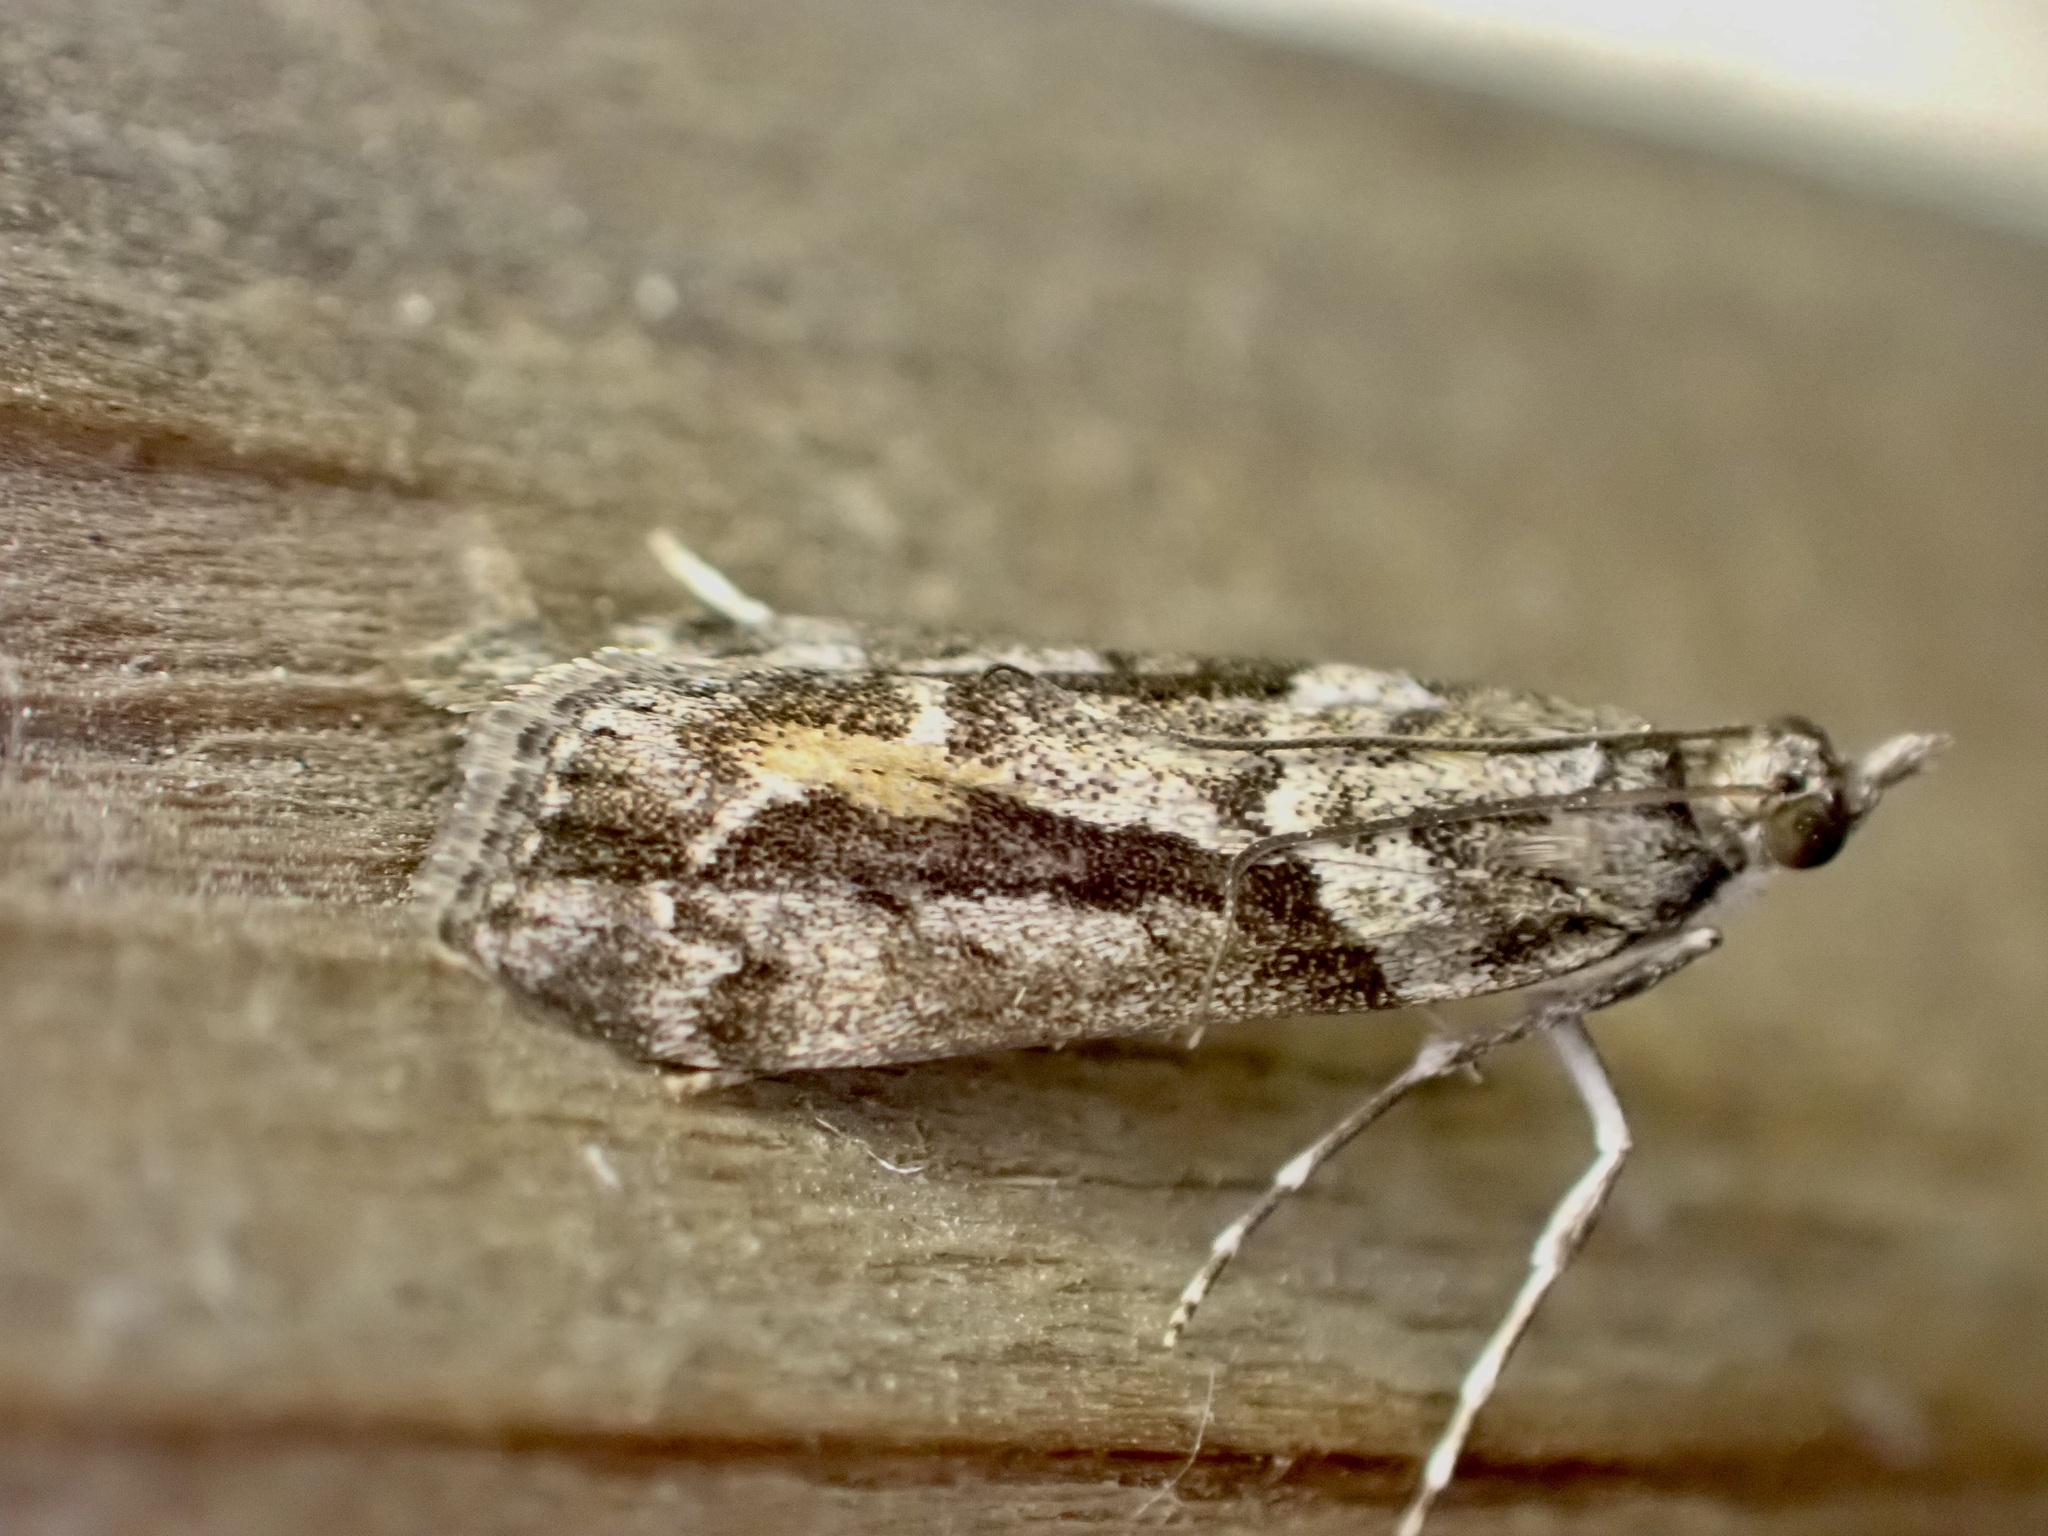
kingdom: Animalia
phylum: Arthropoda
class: Insecta
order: Lepidoptera
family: Crambidae
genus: Eudonia
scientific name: Eudonia submarginalis
